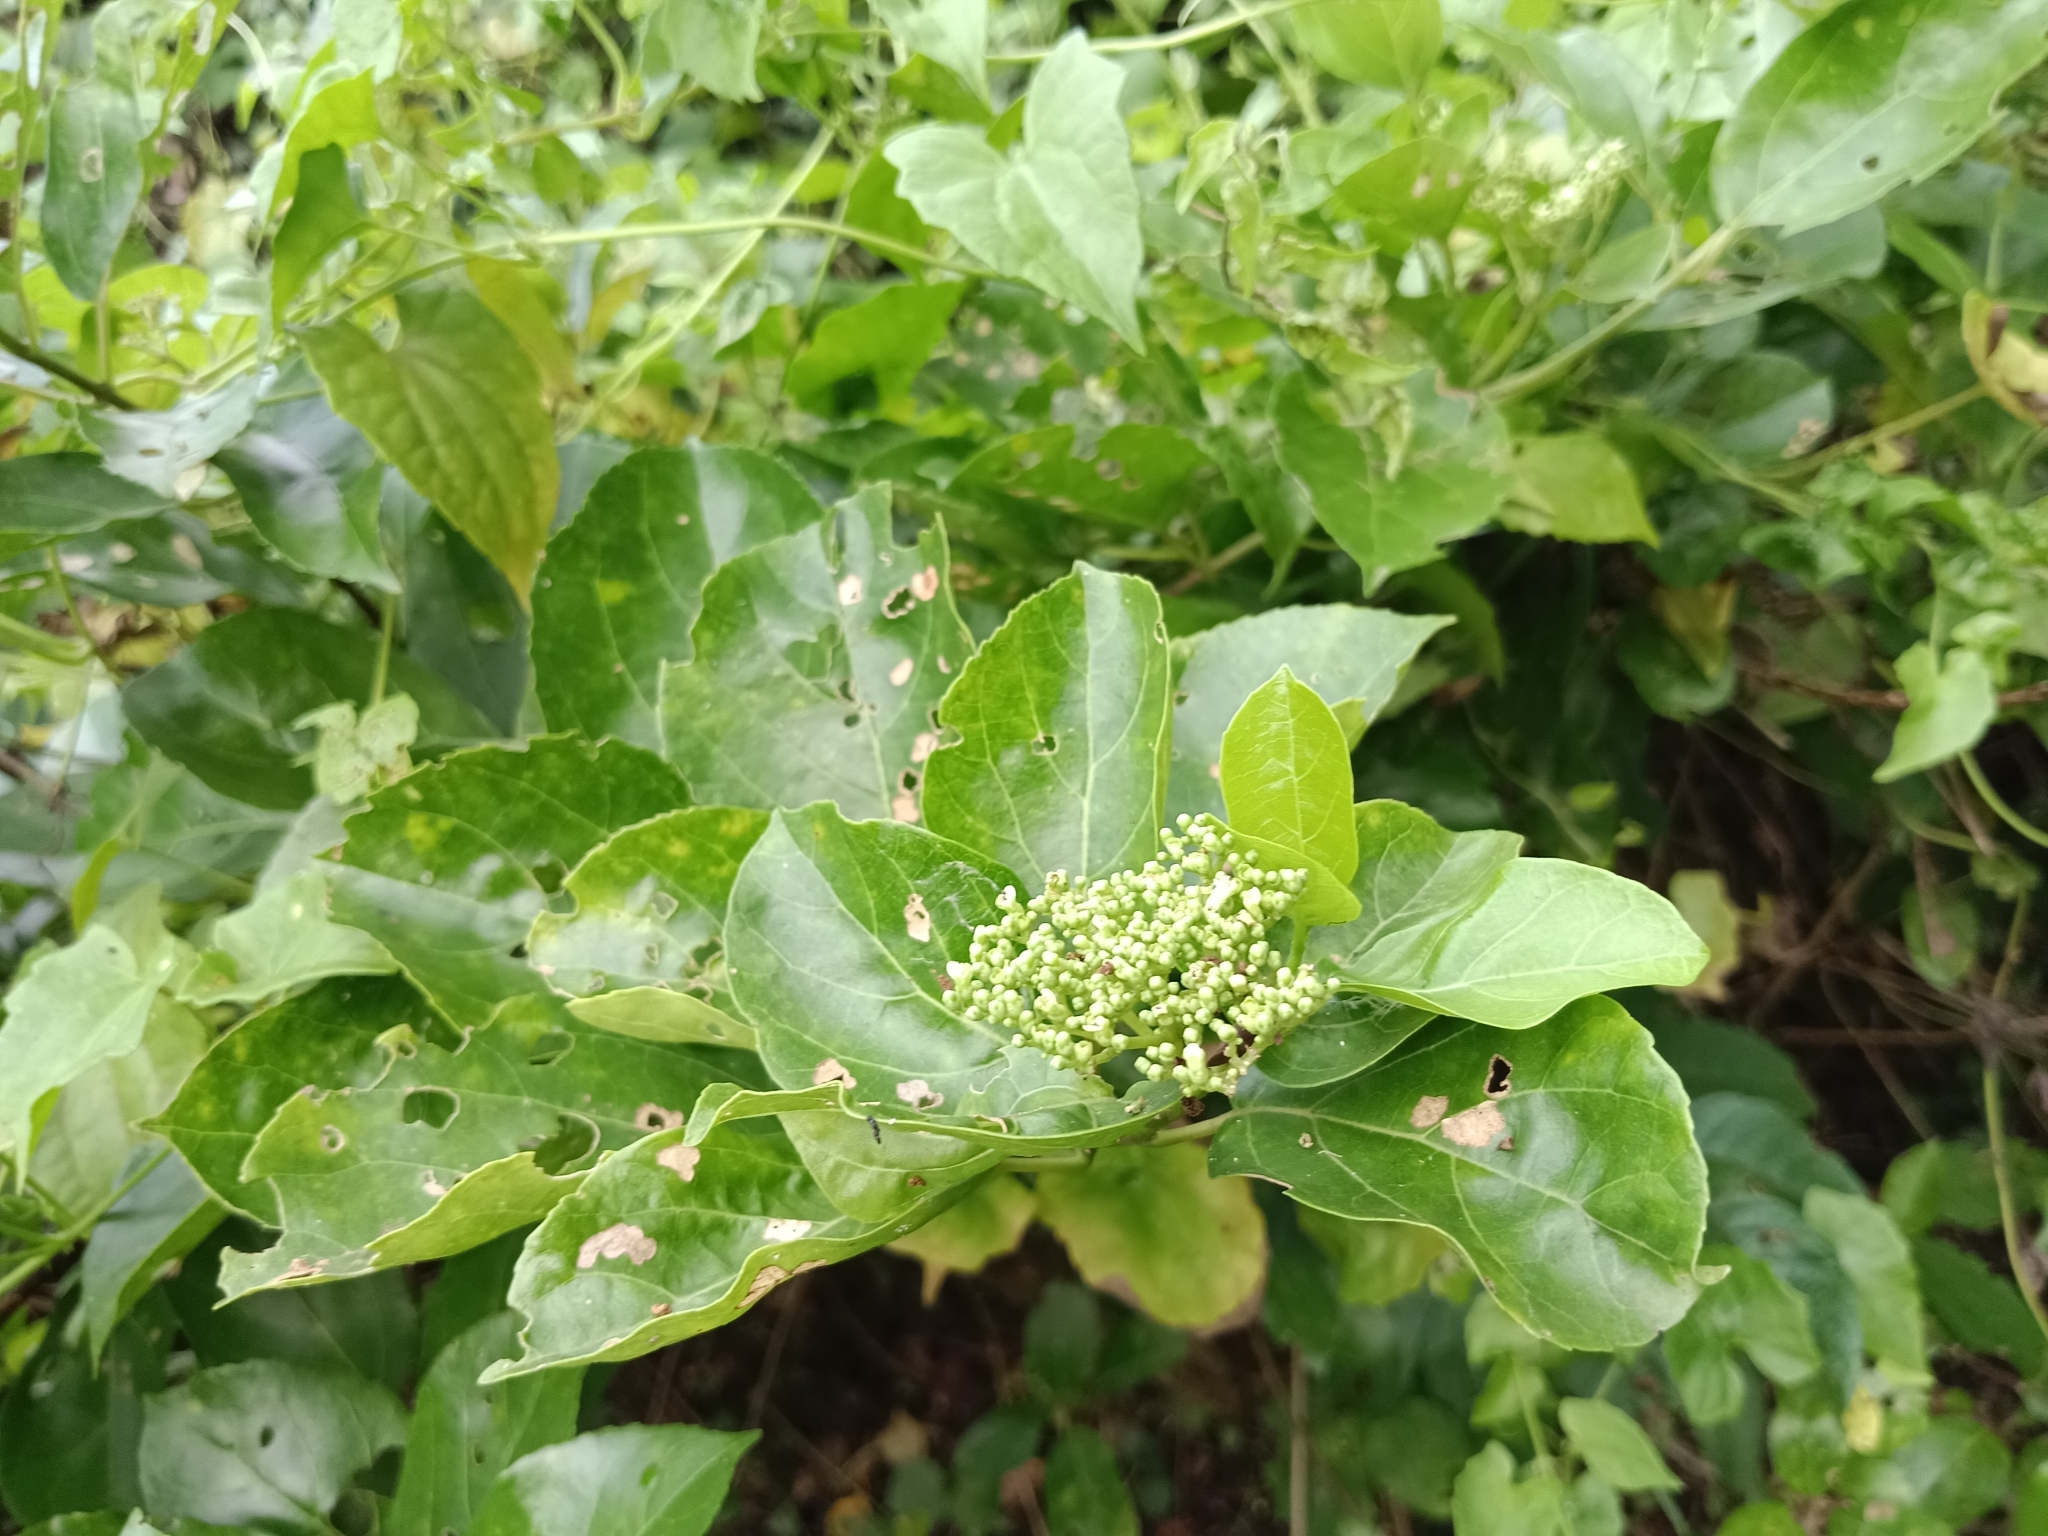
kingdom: Plantae
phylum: Tracheophyta
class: Magnoliopsida
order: Lamiales
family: Lamiaceae
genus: Premna
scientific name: Premna serratifolia
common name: Bastard guelder
